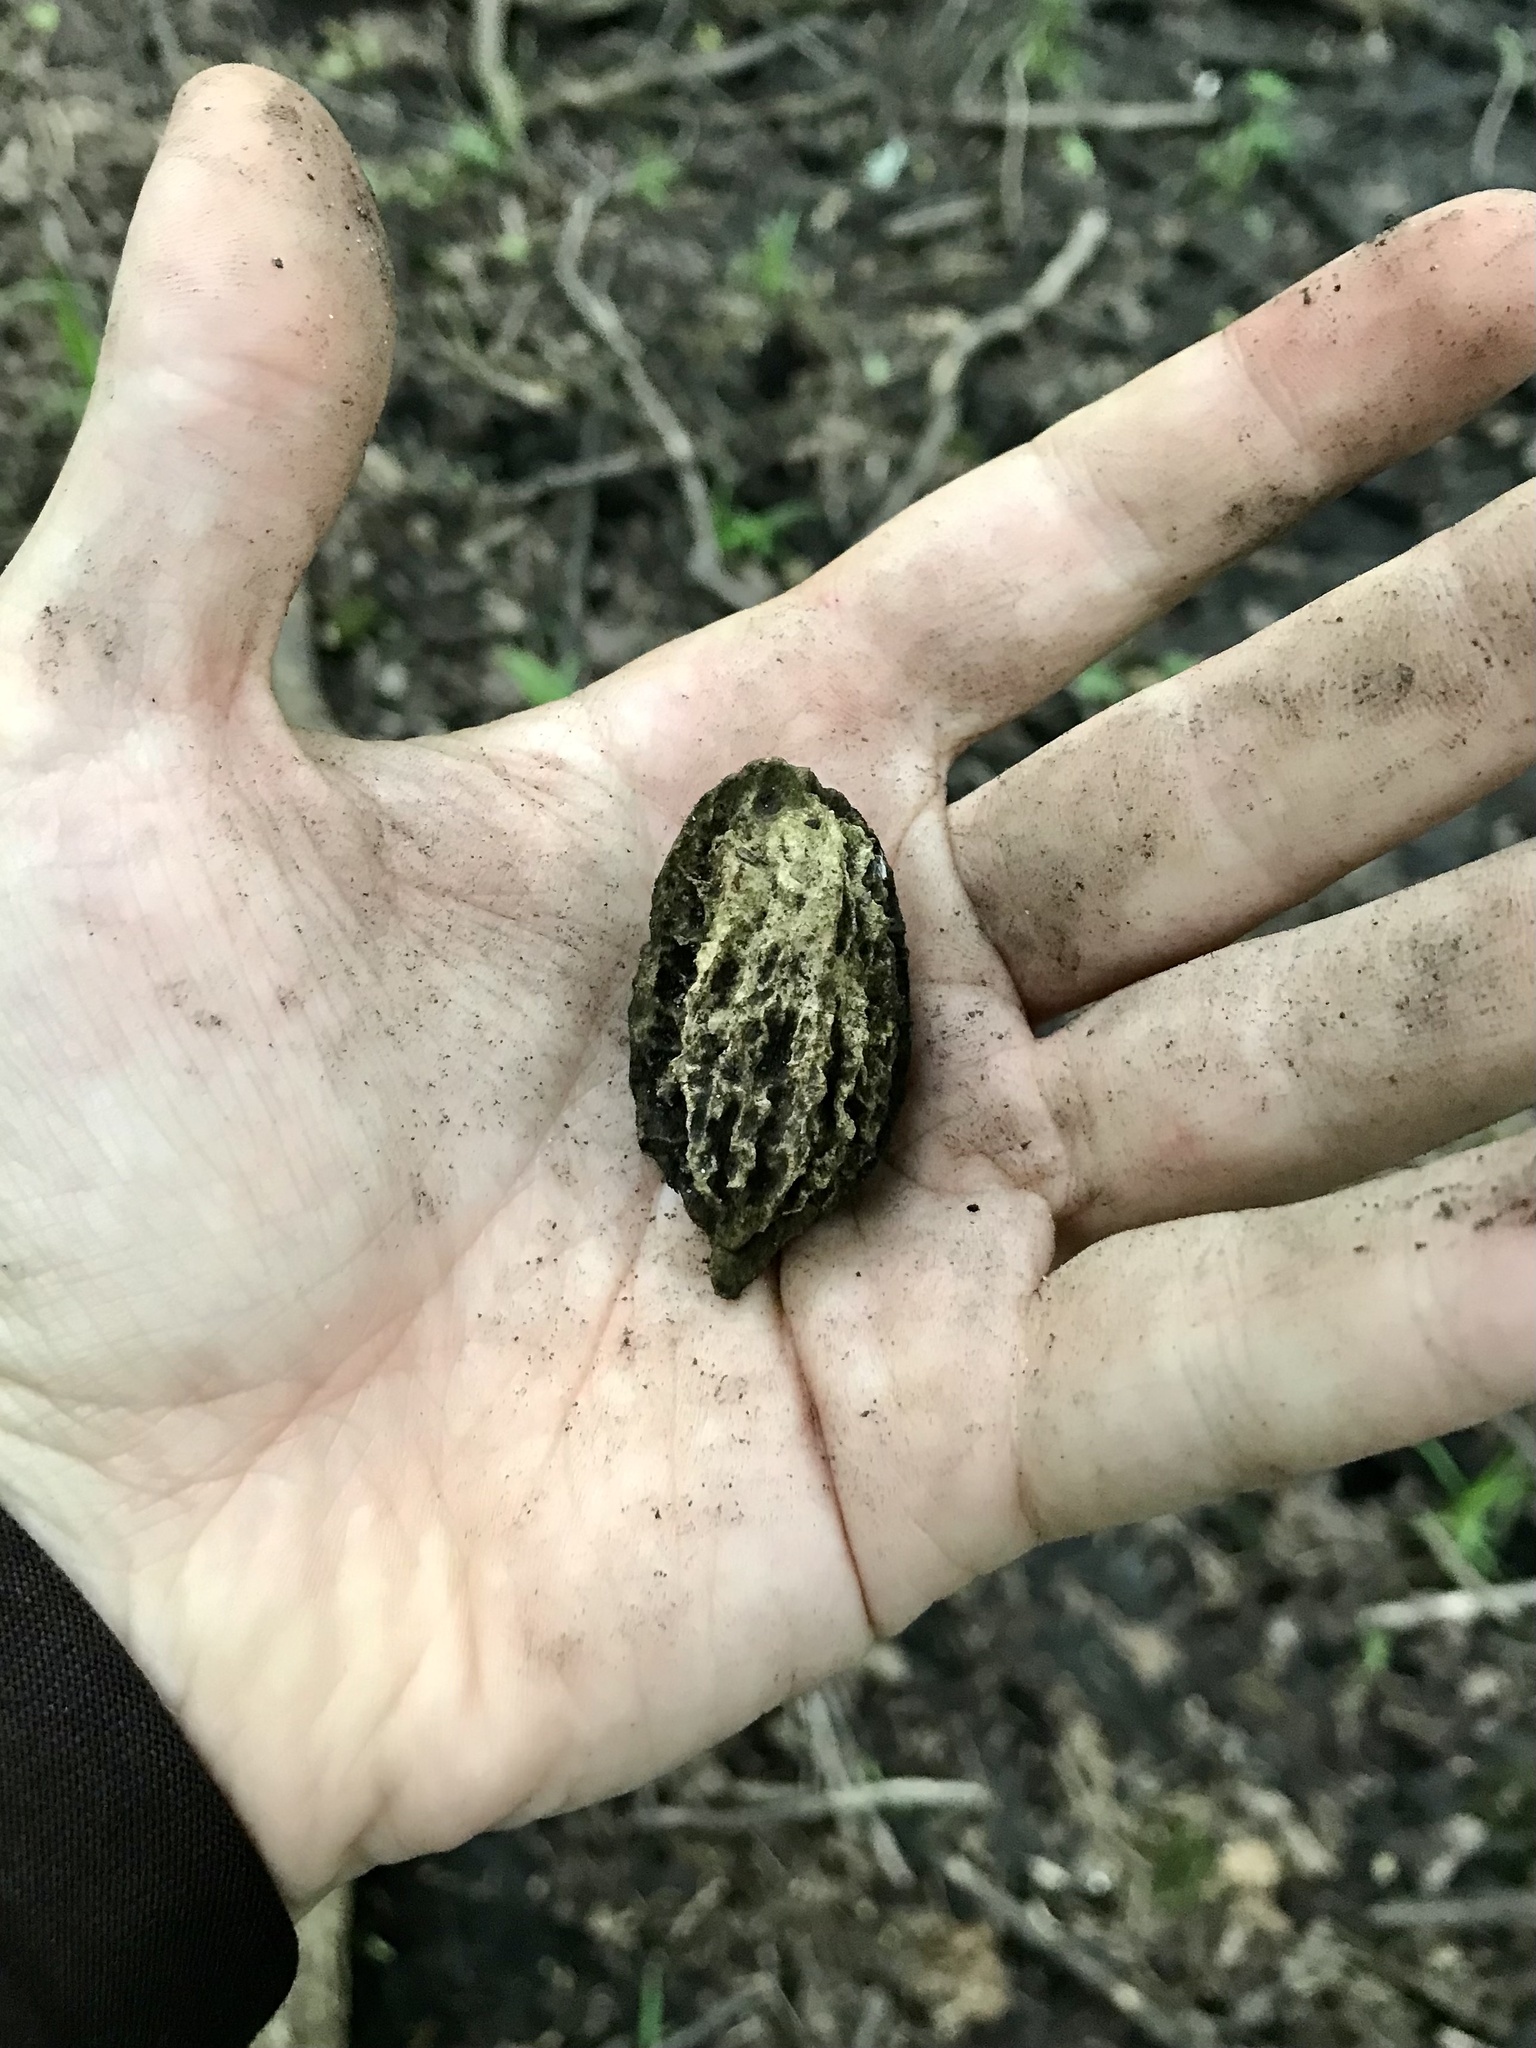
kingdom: Plantae
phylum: Tracheophyta
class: Magnoliopsida
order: Fagales
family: Juglandaceae
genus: Juglans
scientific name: Juglans cinerea
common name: Butternut
